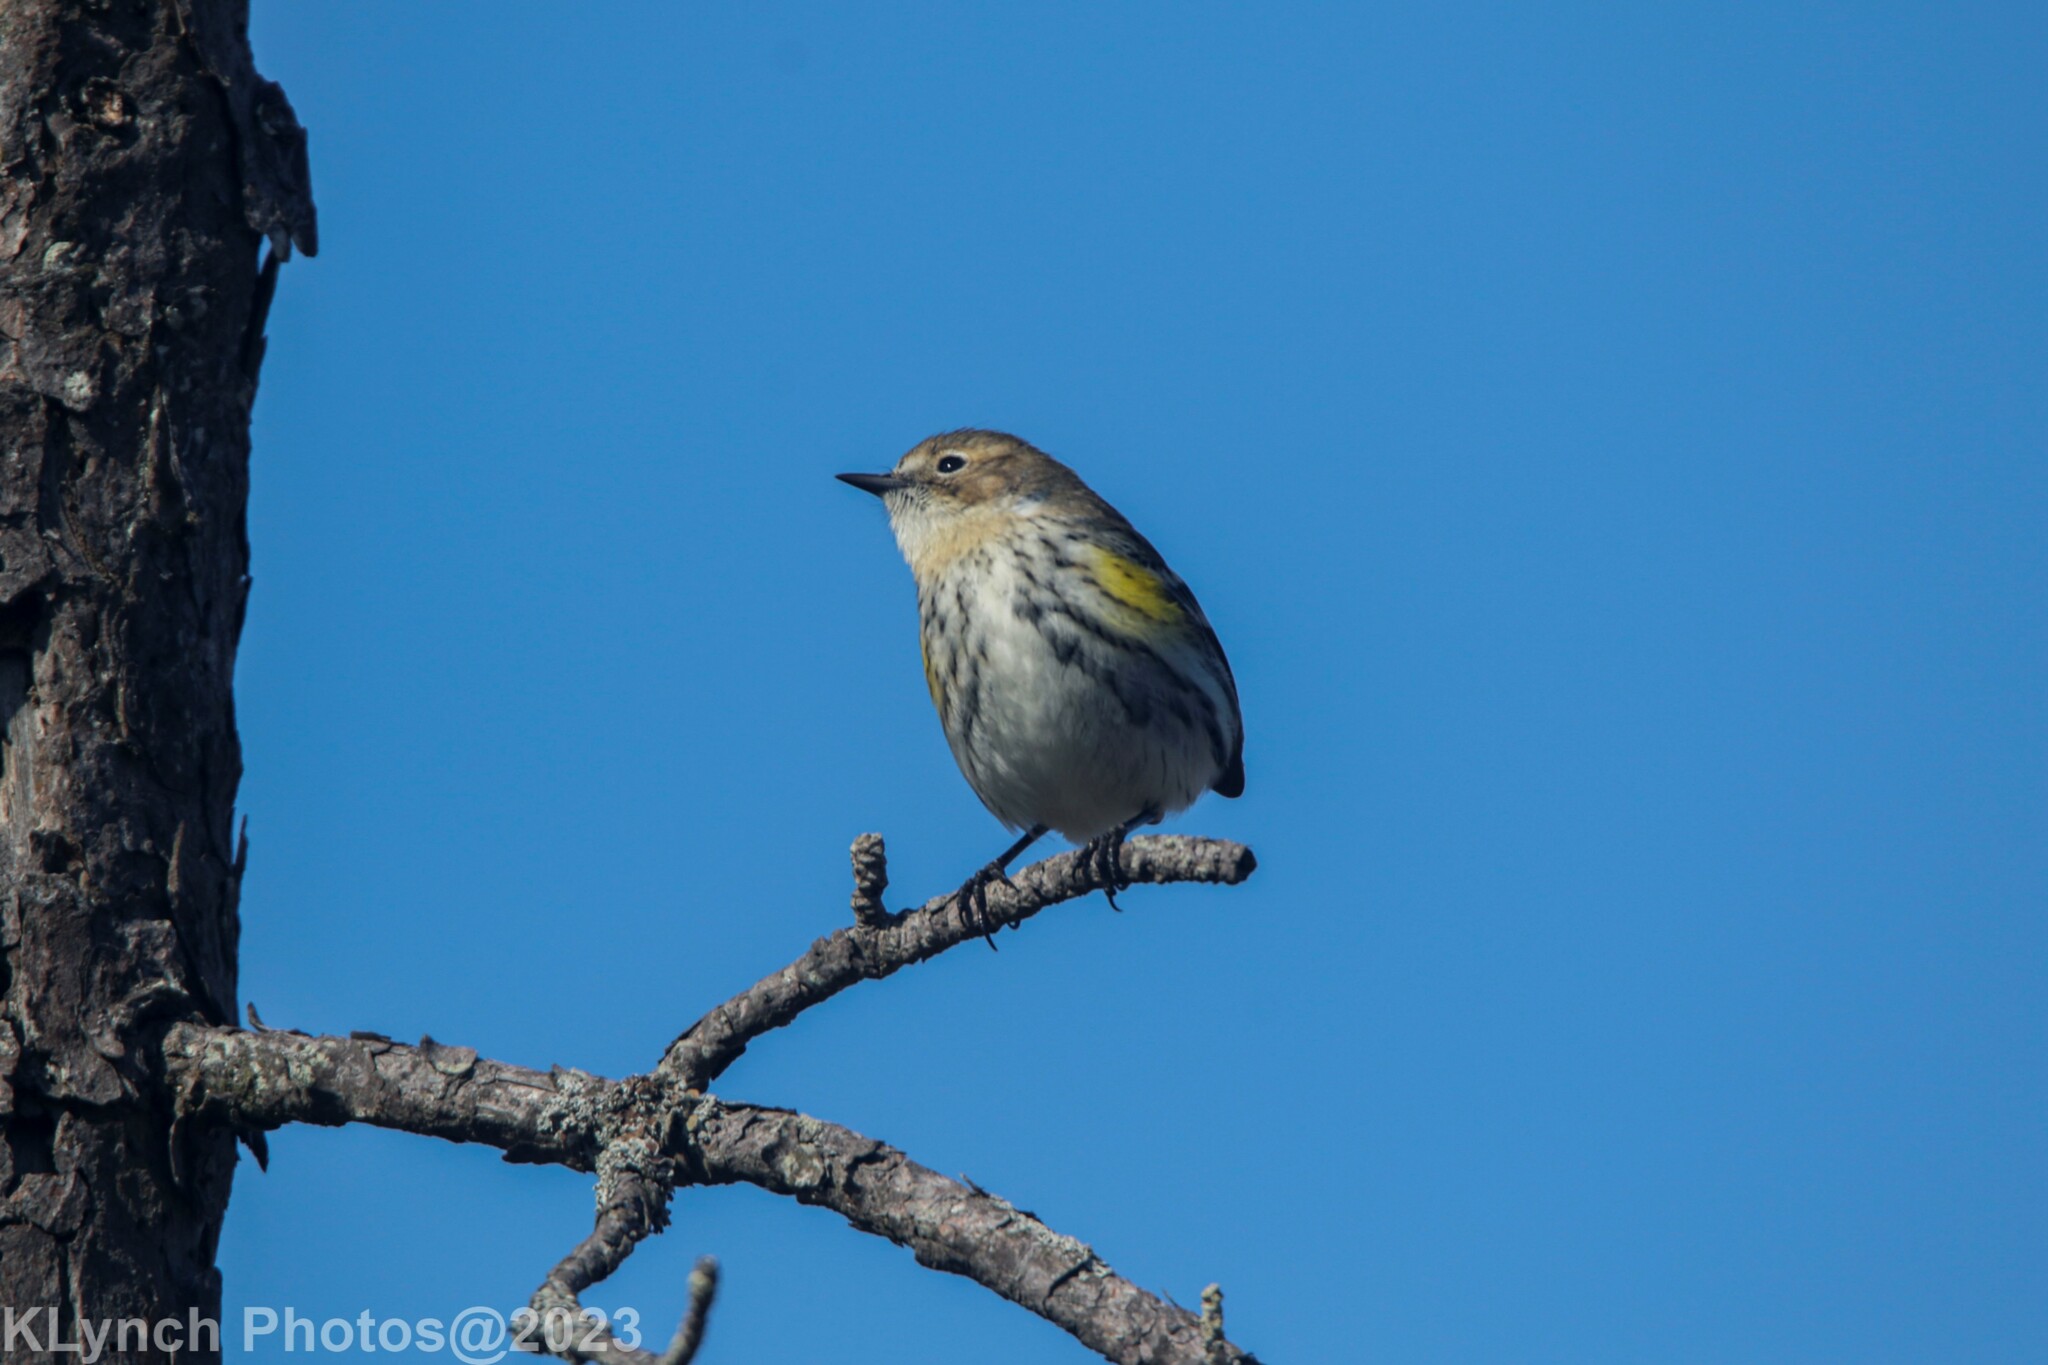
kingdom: Animalia
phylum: Chordata
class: Aves
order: Passeriformes
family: Parulidae
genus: Setophaga
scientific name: Setophaga coronata
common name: Myrtle warbler
